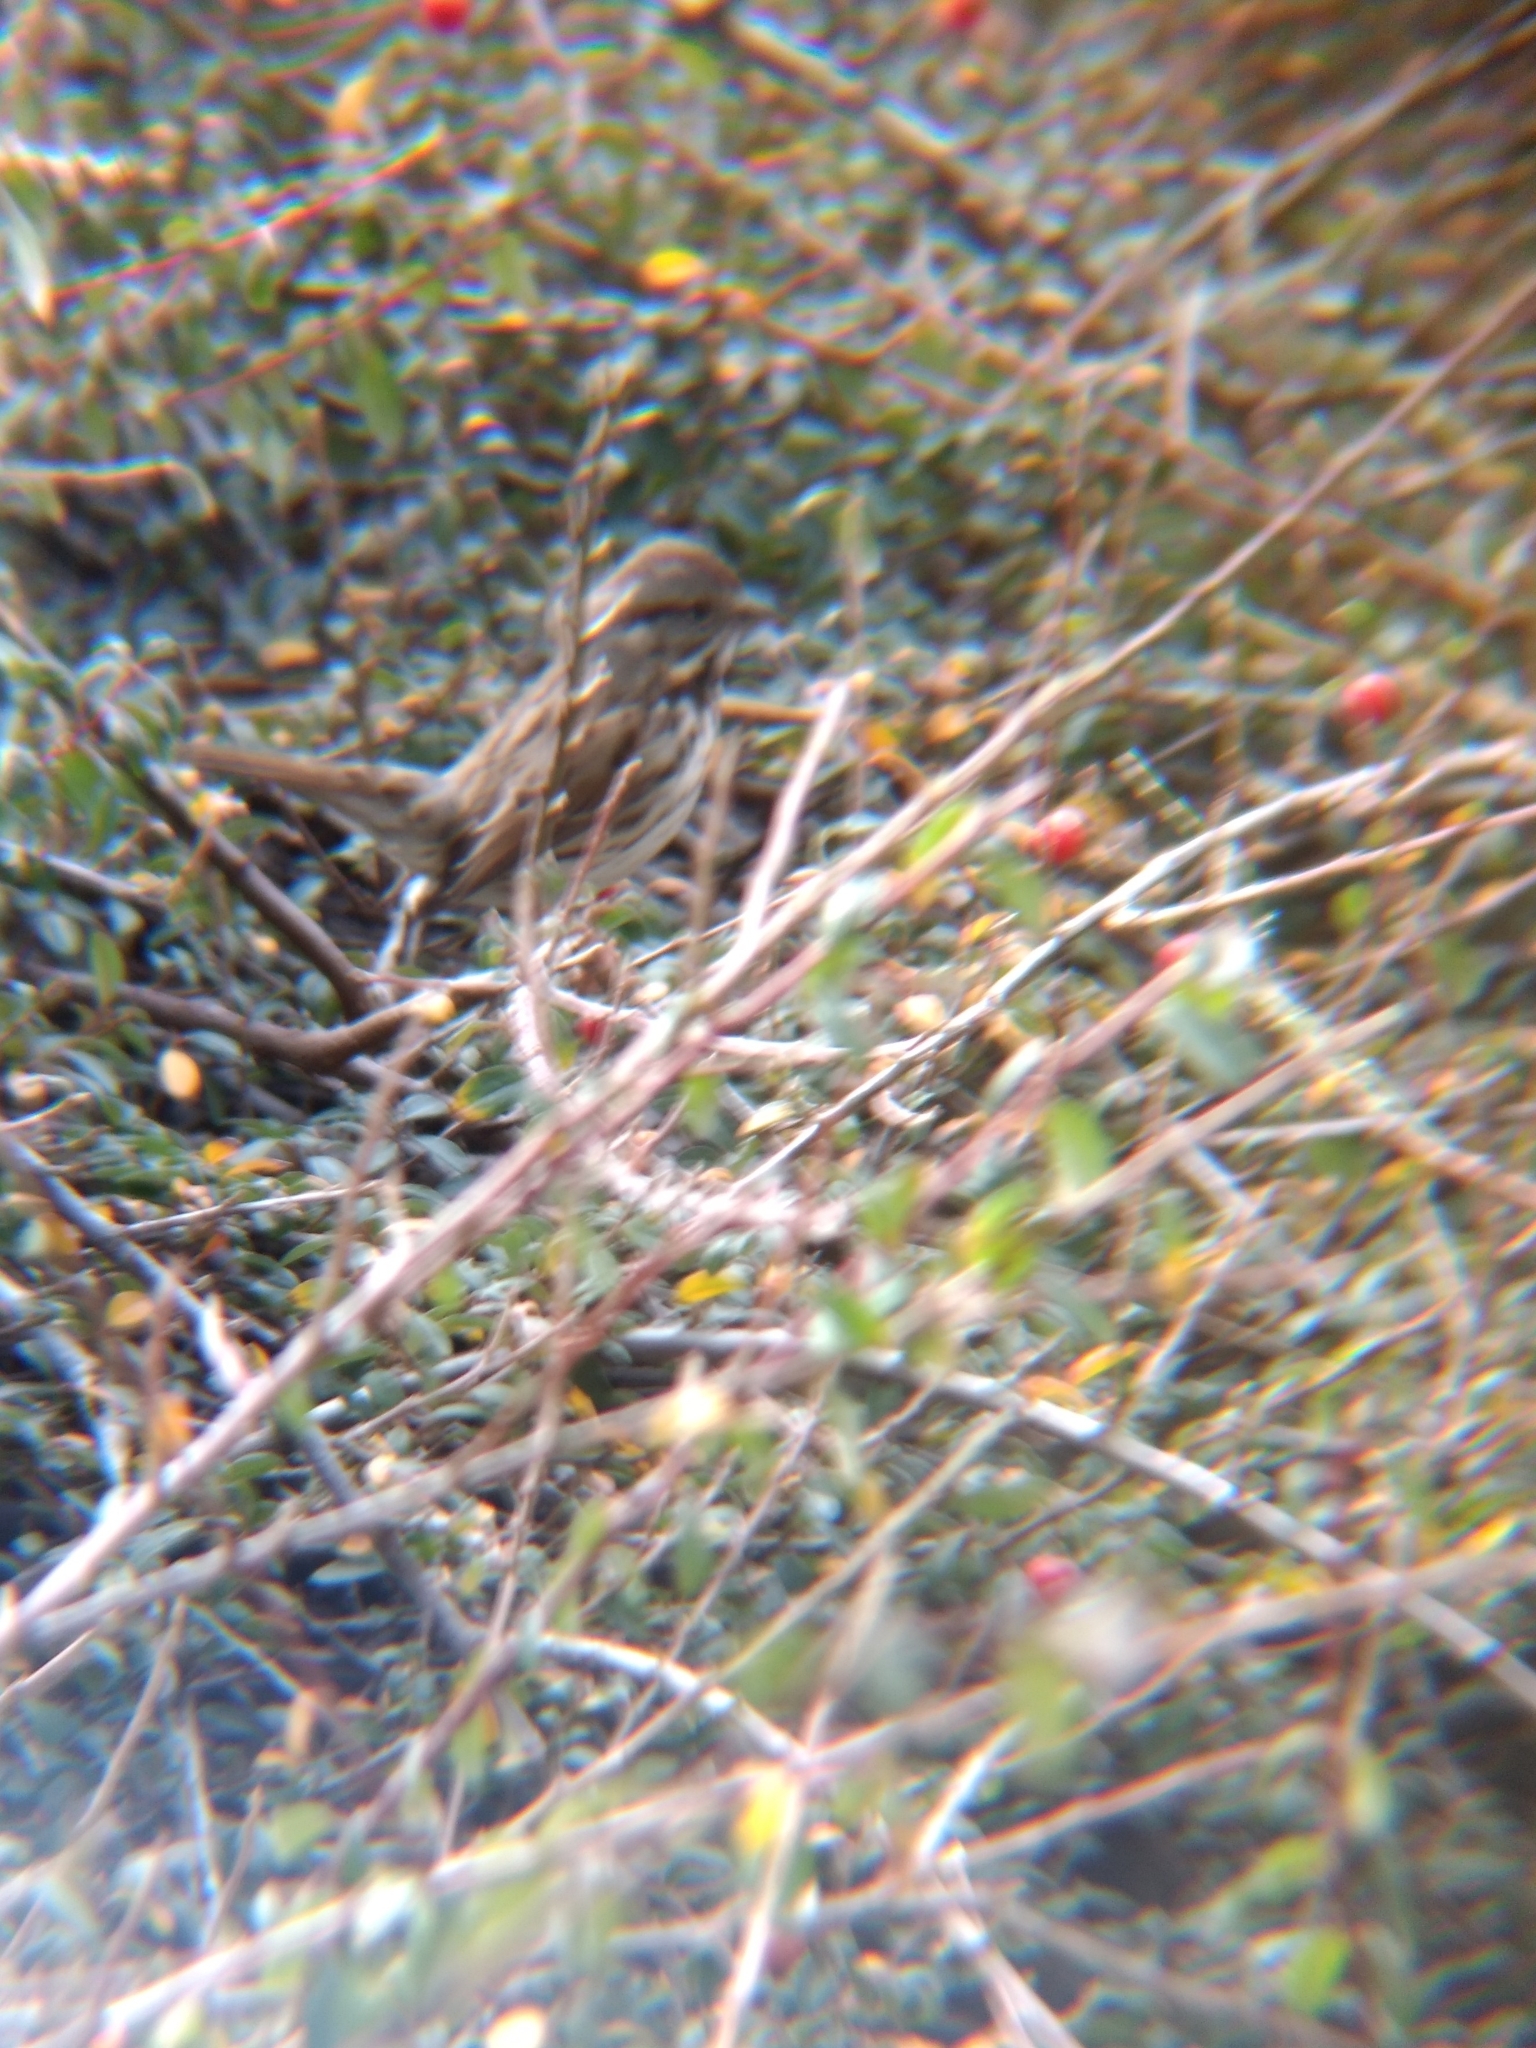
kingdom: Animalia
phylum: Chordata
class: Aves
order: Passeriformes
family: Passerellidae
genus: Melospiza
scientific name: Melospiza melodia
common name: Song sparrow
